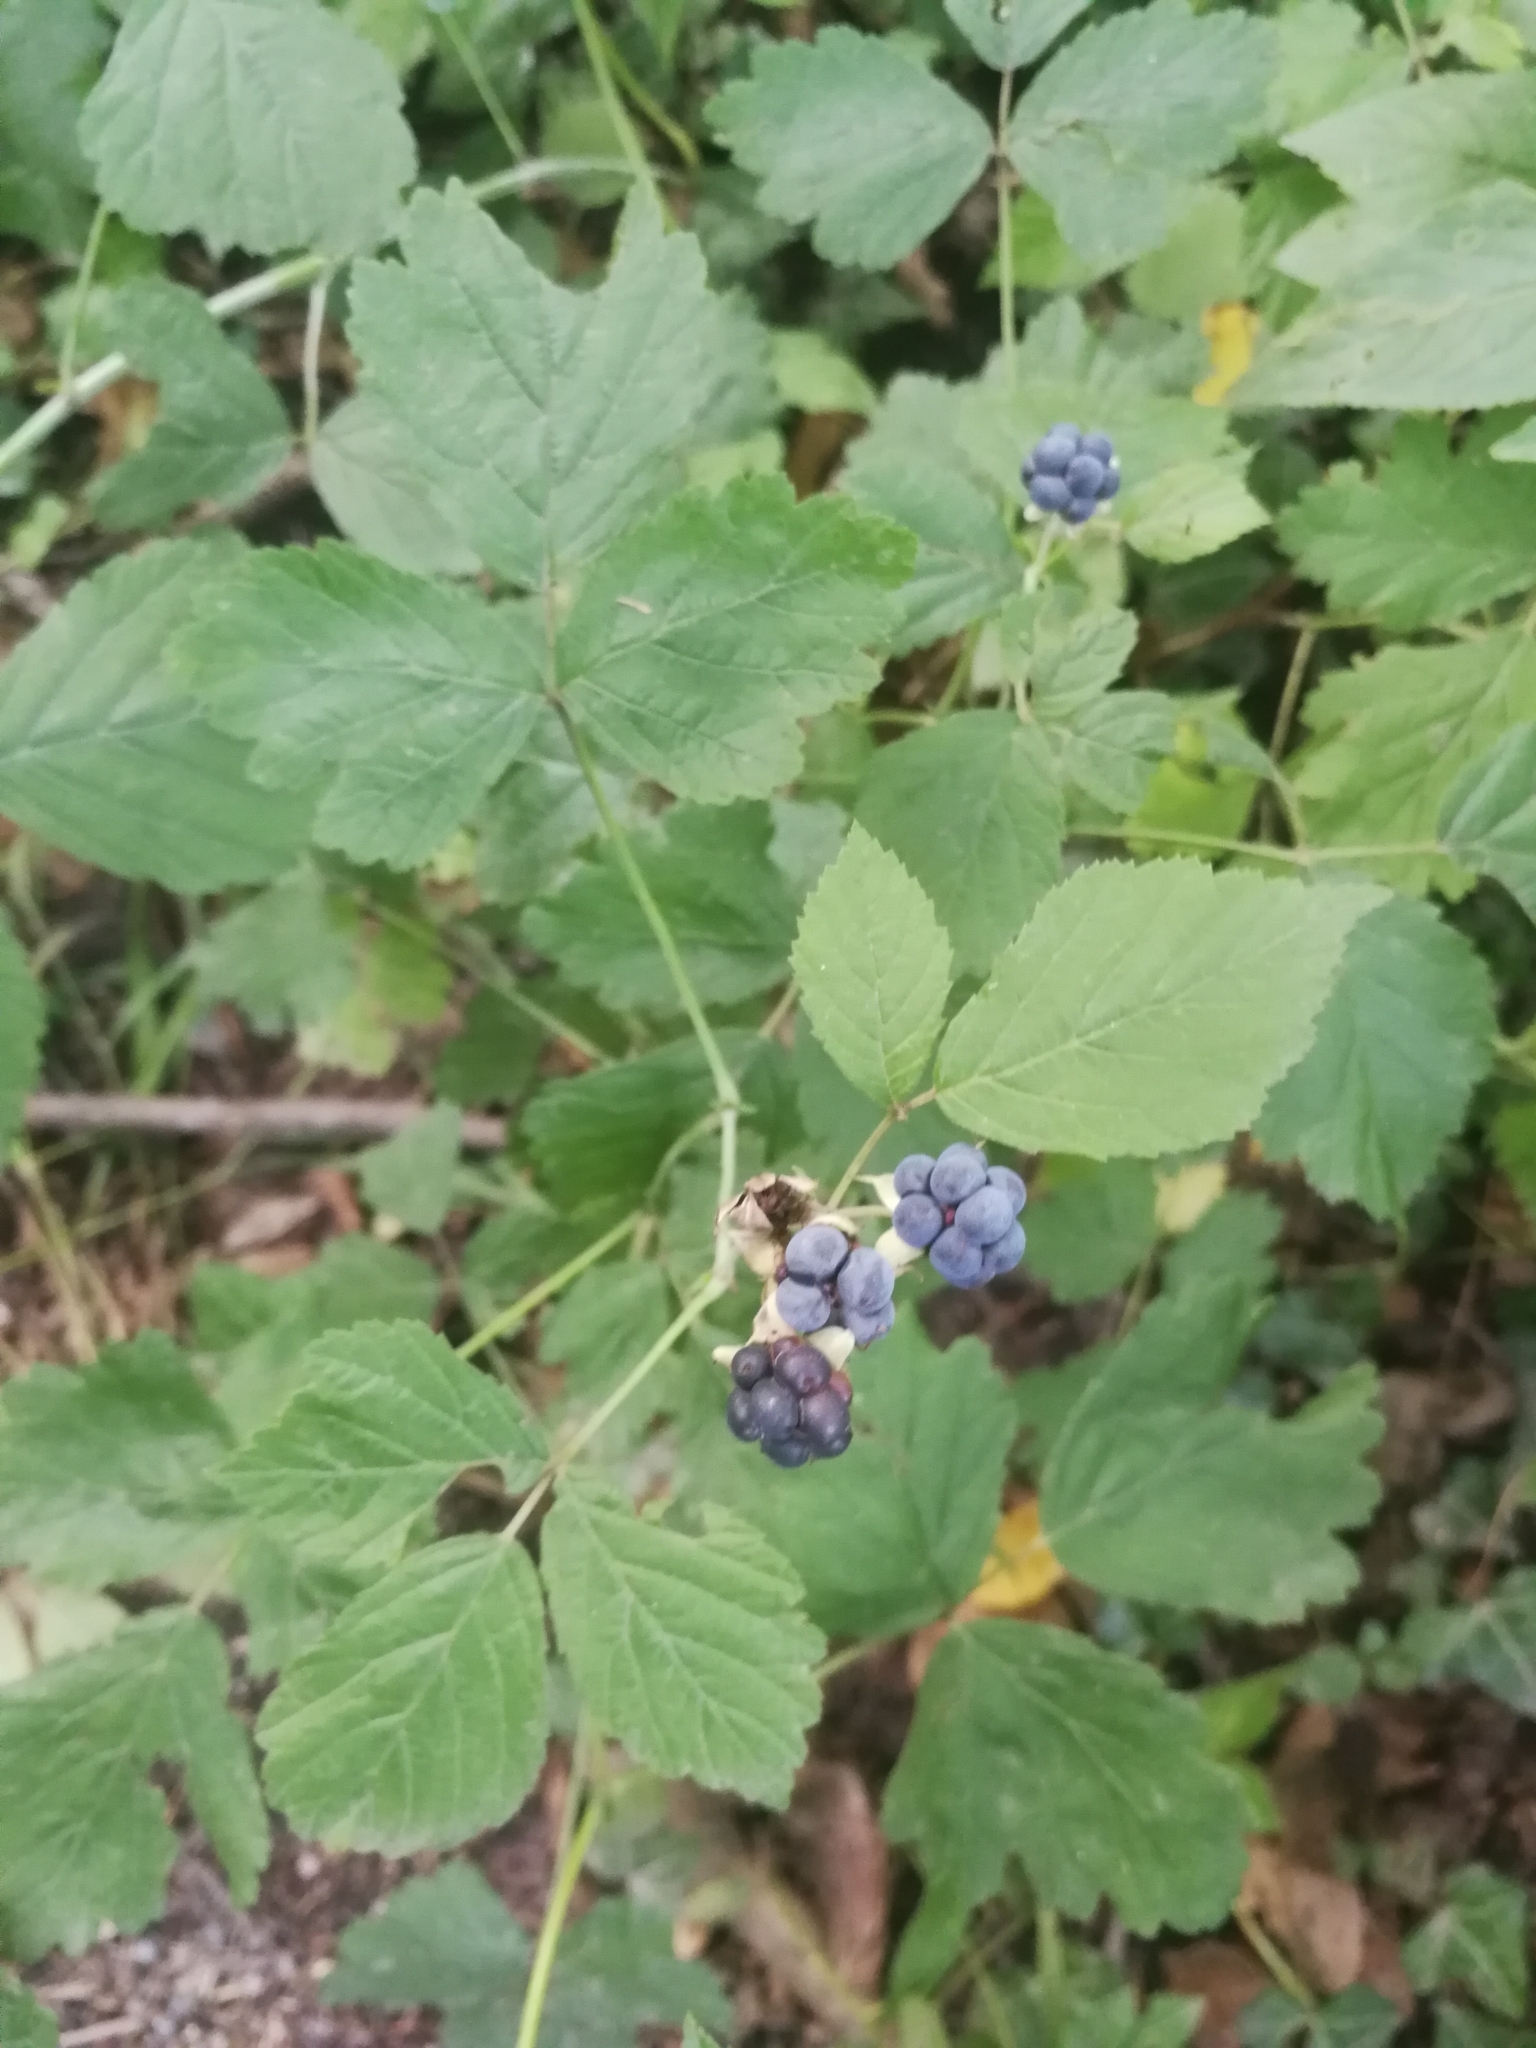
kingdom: Plantae
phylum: Tracheophyta
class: Magnoliopsida
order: Rosales
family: Rosaceae
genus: Rubus
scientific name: Rubus caesius
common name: Dewberry
